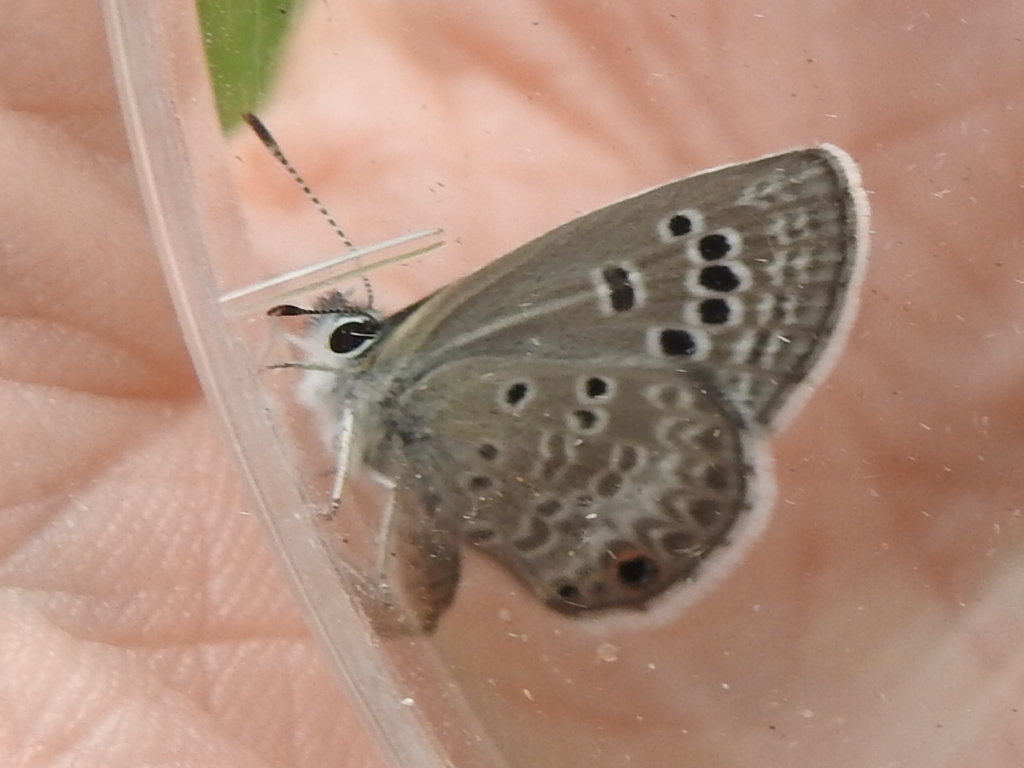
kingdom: Animalia
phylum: Arthropoda
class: Insecta
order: Lepidoptera
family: Lycaenidae
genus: Echinargus
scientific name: Echinargus isola
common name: Reakirt's blue
